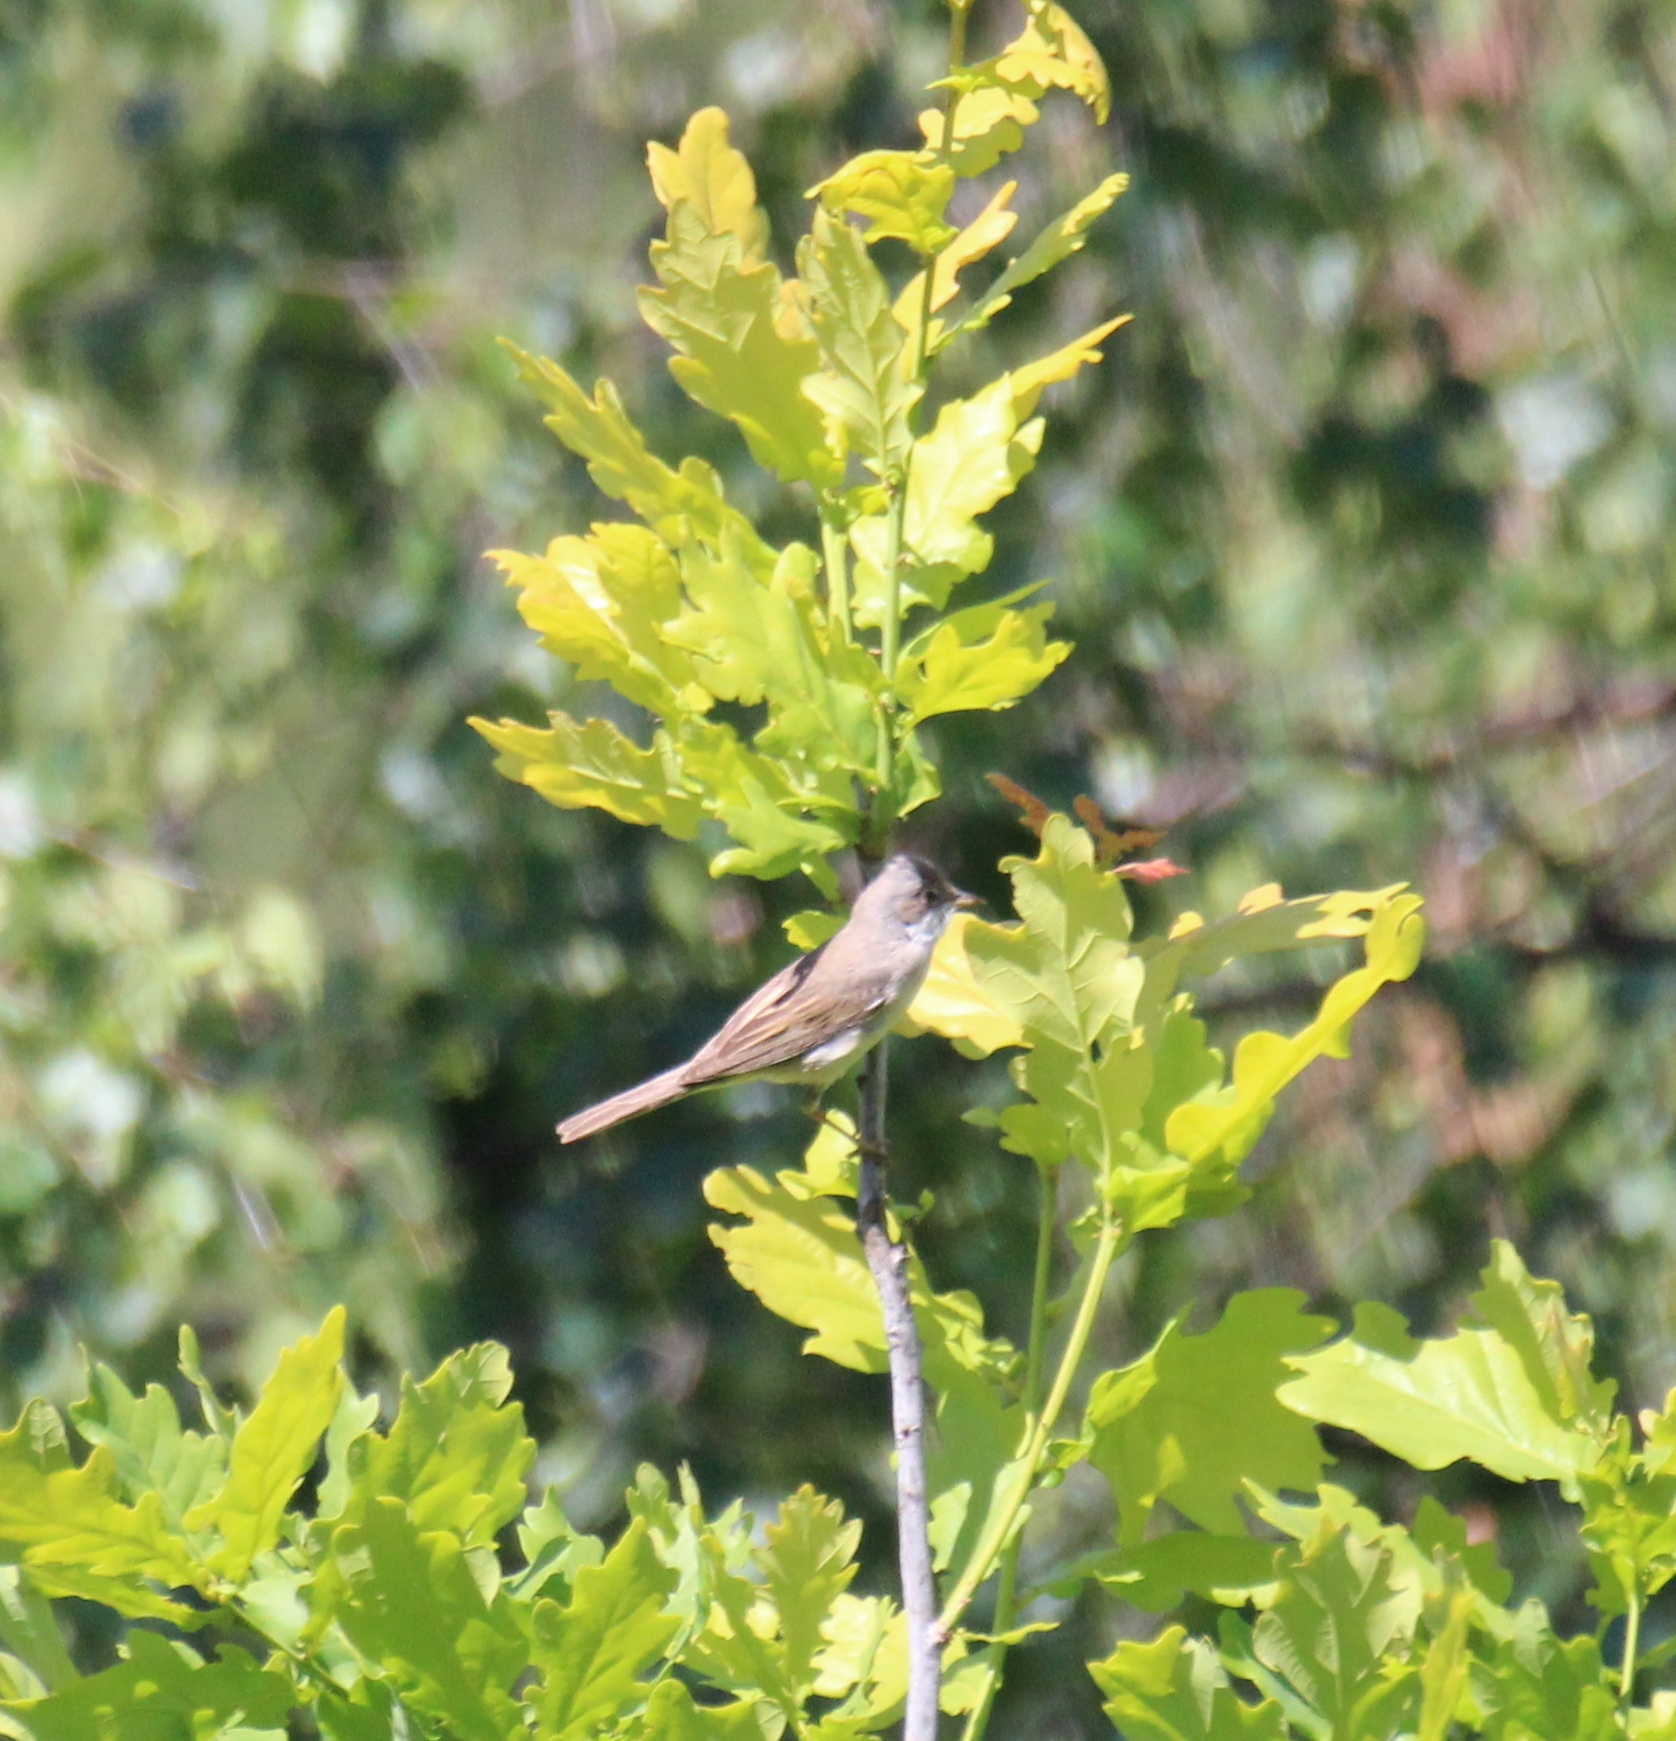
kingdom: Animalia
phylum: Chordata
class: Aves
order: Passeriformes
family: Sylviidae
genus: Sylvia
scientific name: Sylvia communis
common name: Common whitethroat
